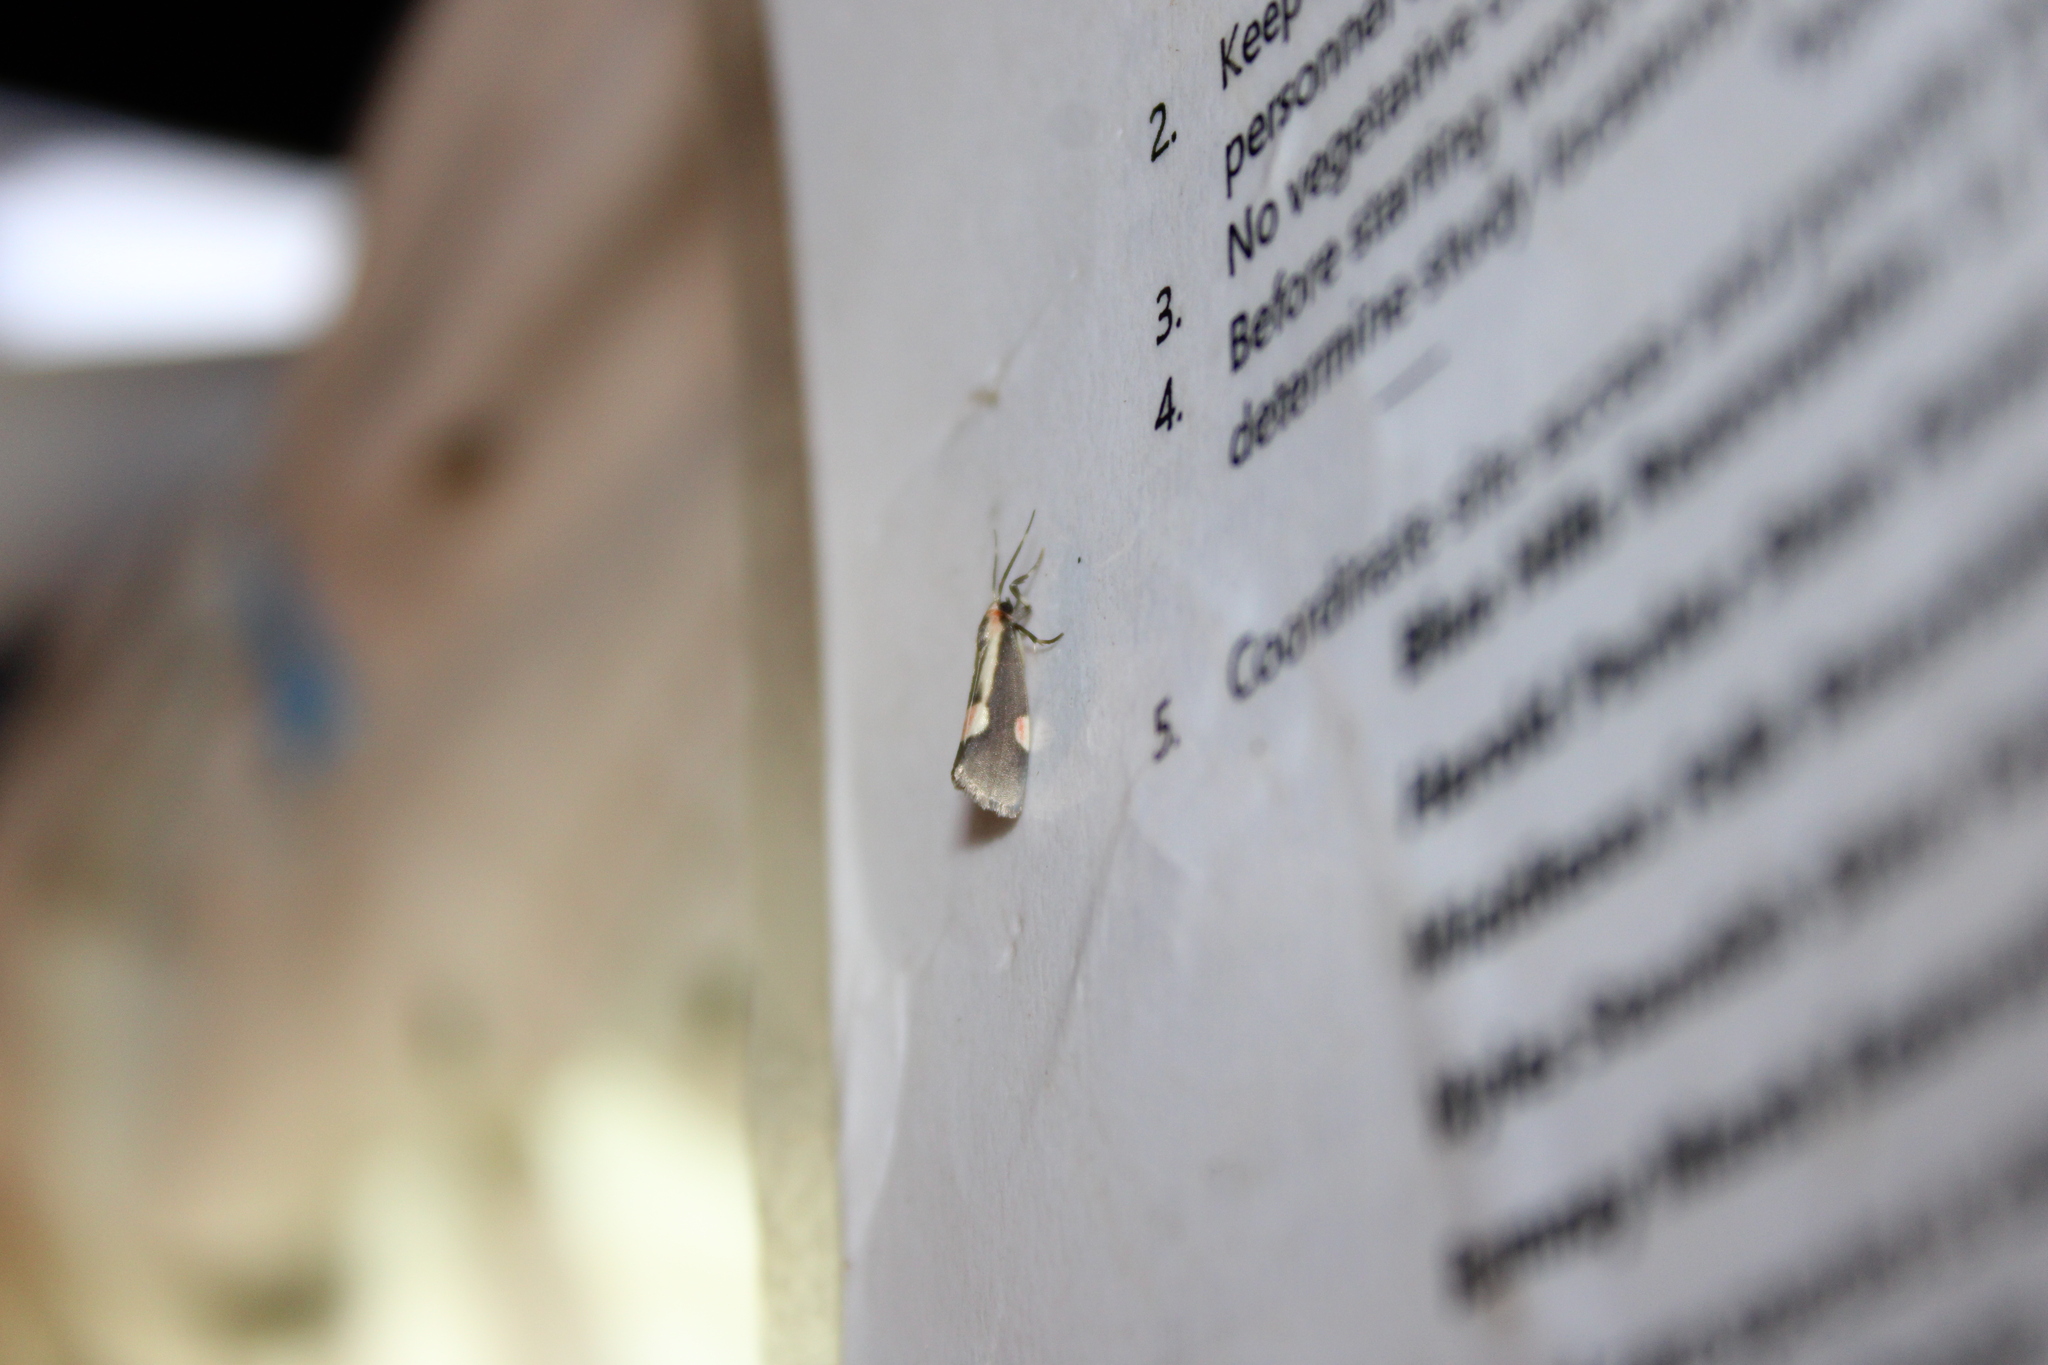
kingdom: Animalia
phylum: Arthropoda
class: Insecta
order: Lepidoptera
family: Erebidae
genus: Cisthene
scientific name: Cisthene packardii
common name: Packard's lichen moth
